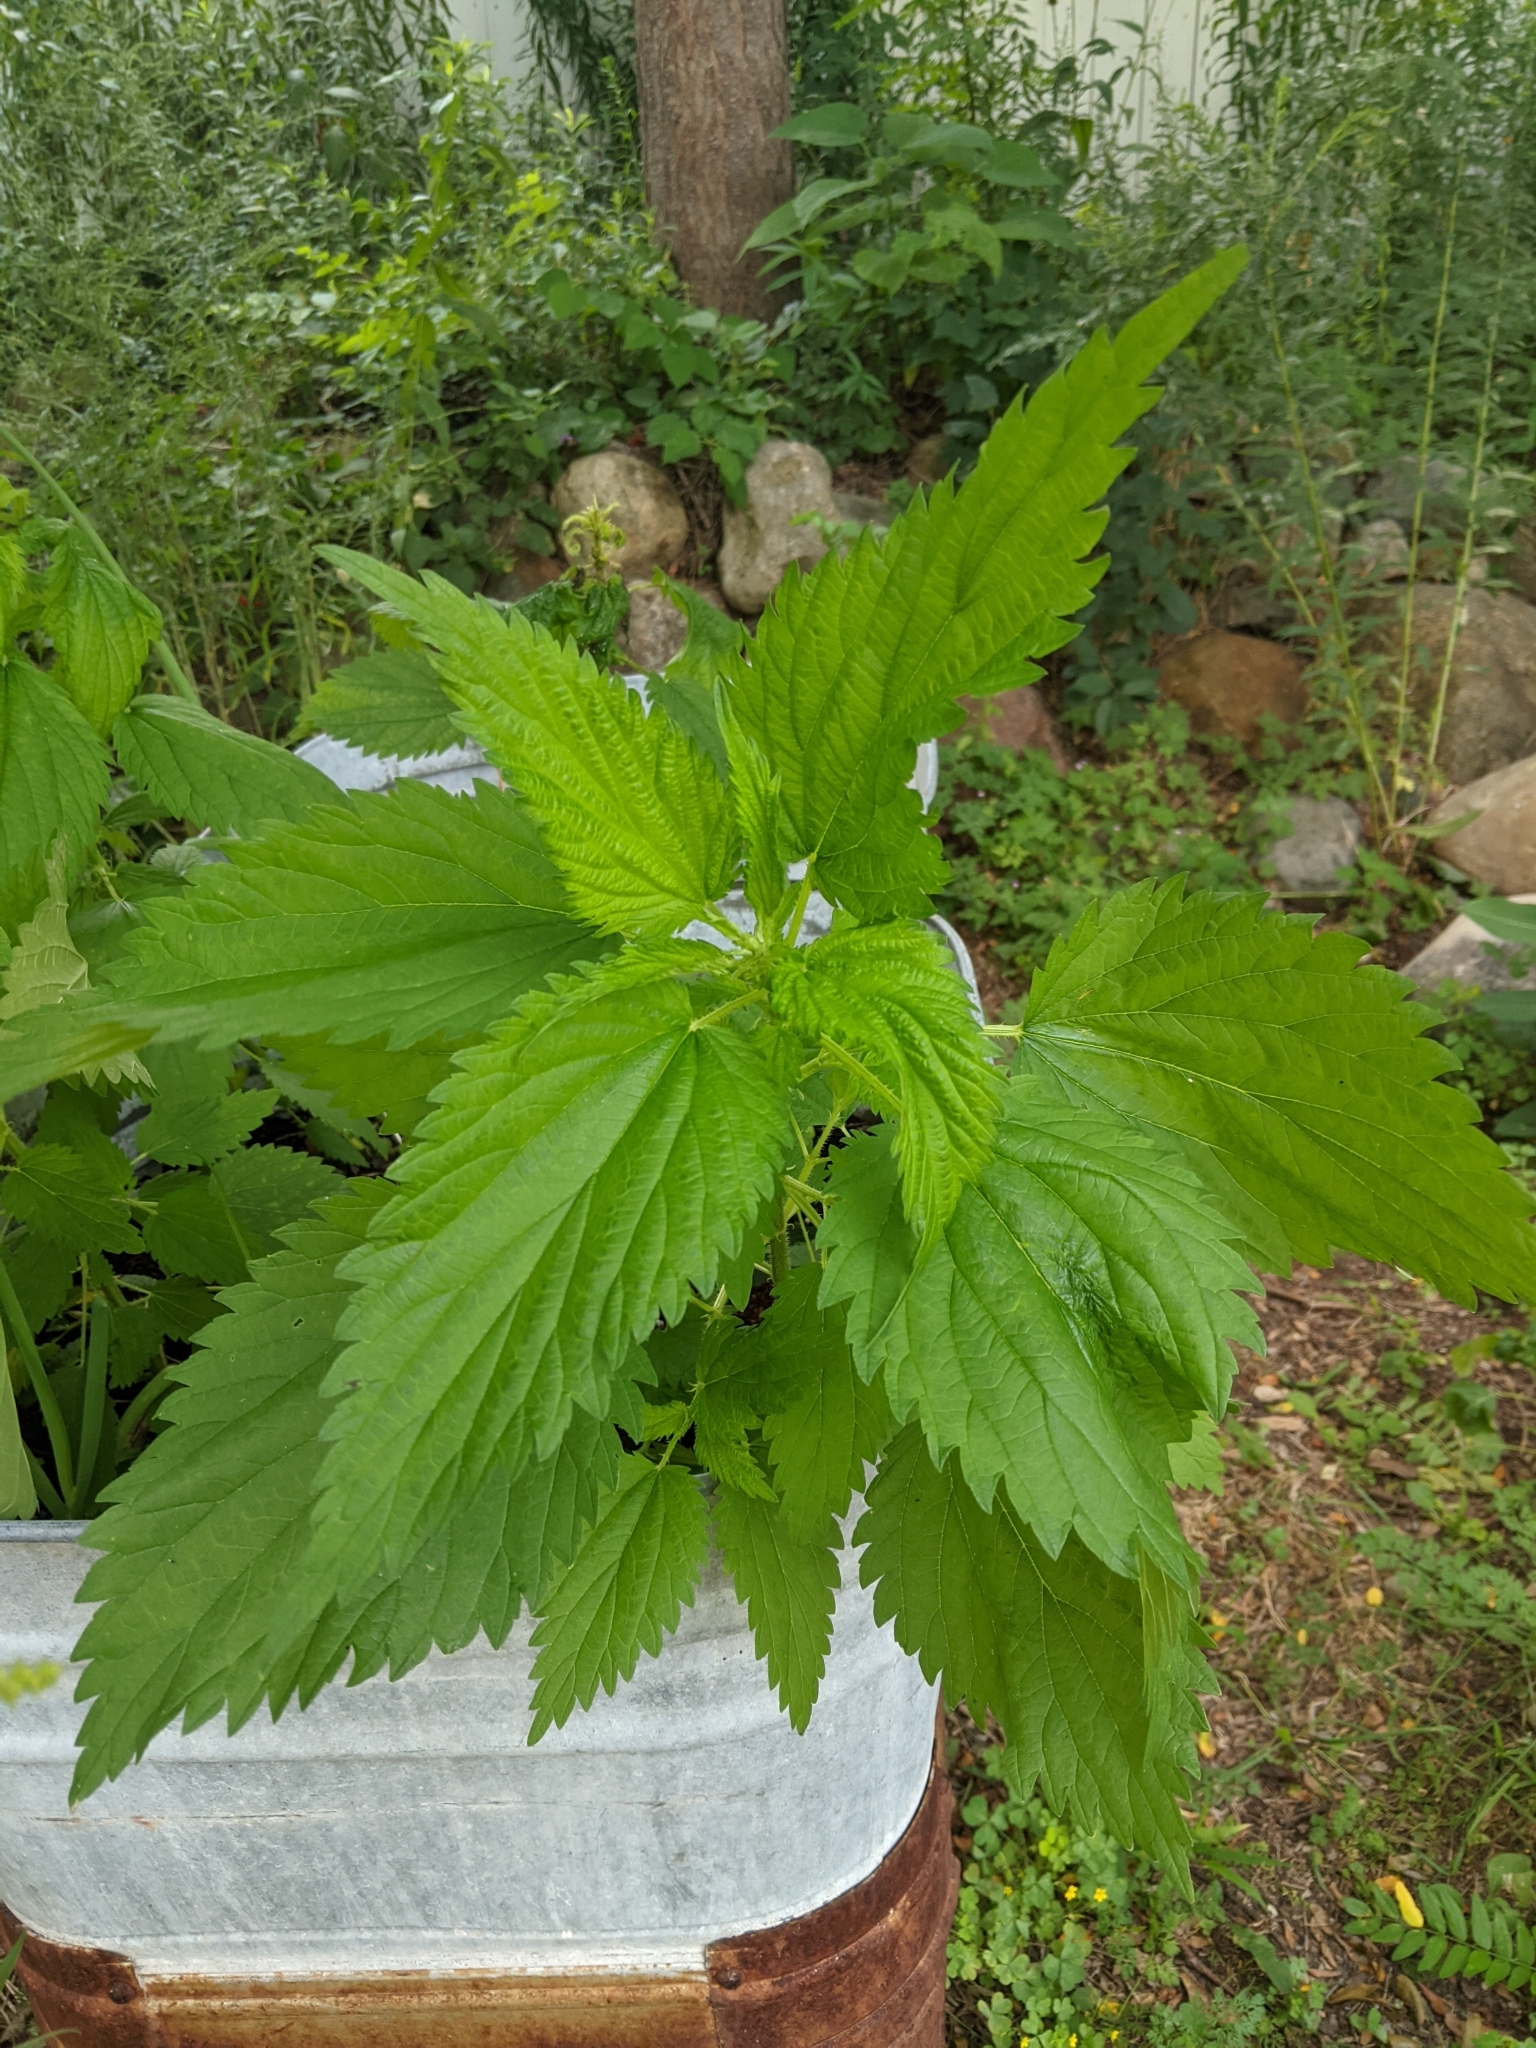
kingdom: Plantae
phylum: Tracheophyta
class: Magnoliopsida
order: Rosales
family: Urticaceae
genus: Urtica
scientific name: Urtica dioica
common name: Common nettle
